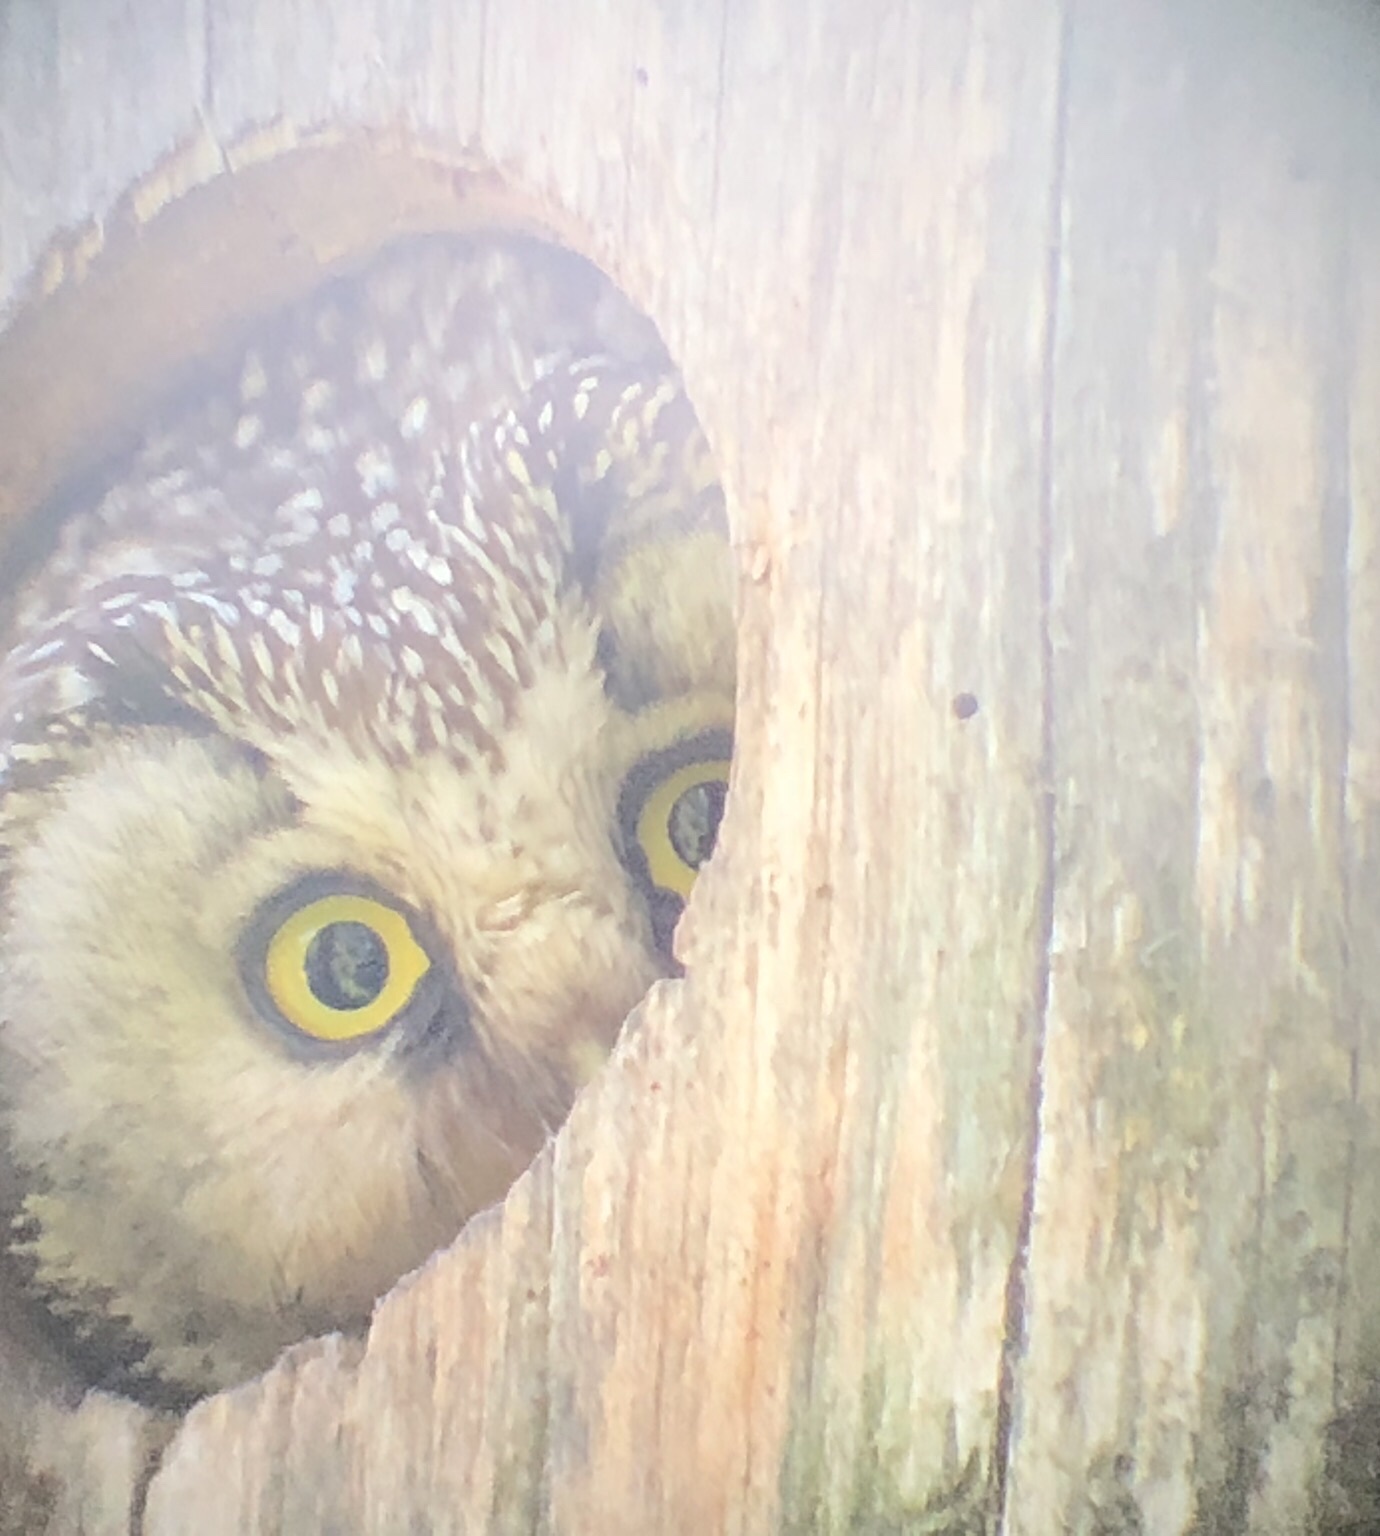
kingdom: Animalia
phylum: Chordata
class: Aves
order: Strigiformes
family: Strigidae
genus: Aegolius
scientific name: Aegolius funereus
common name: Boreal owl
